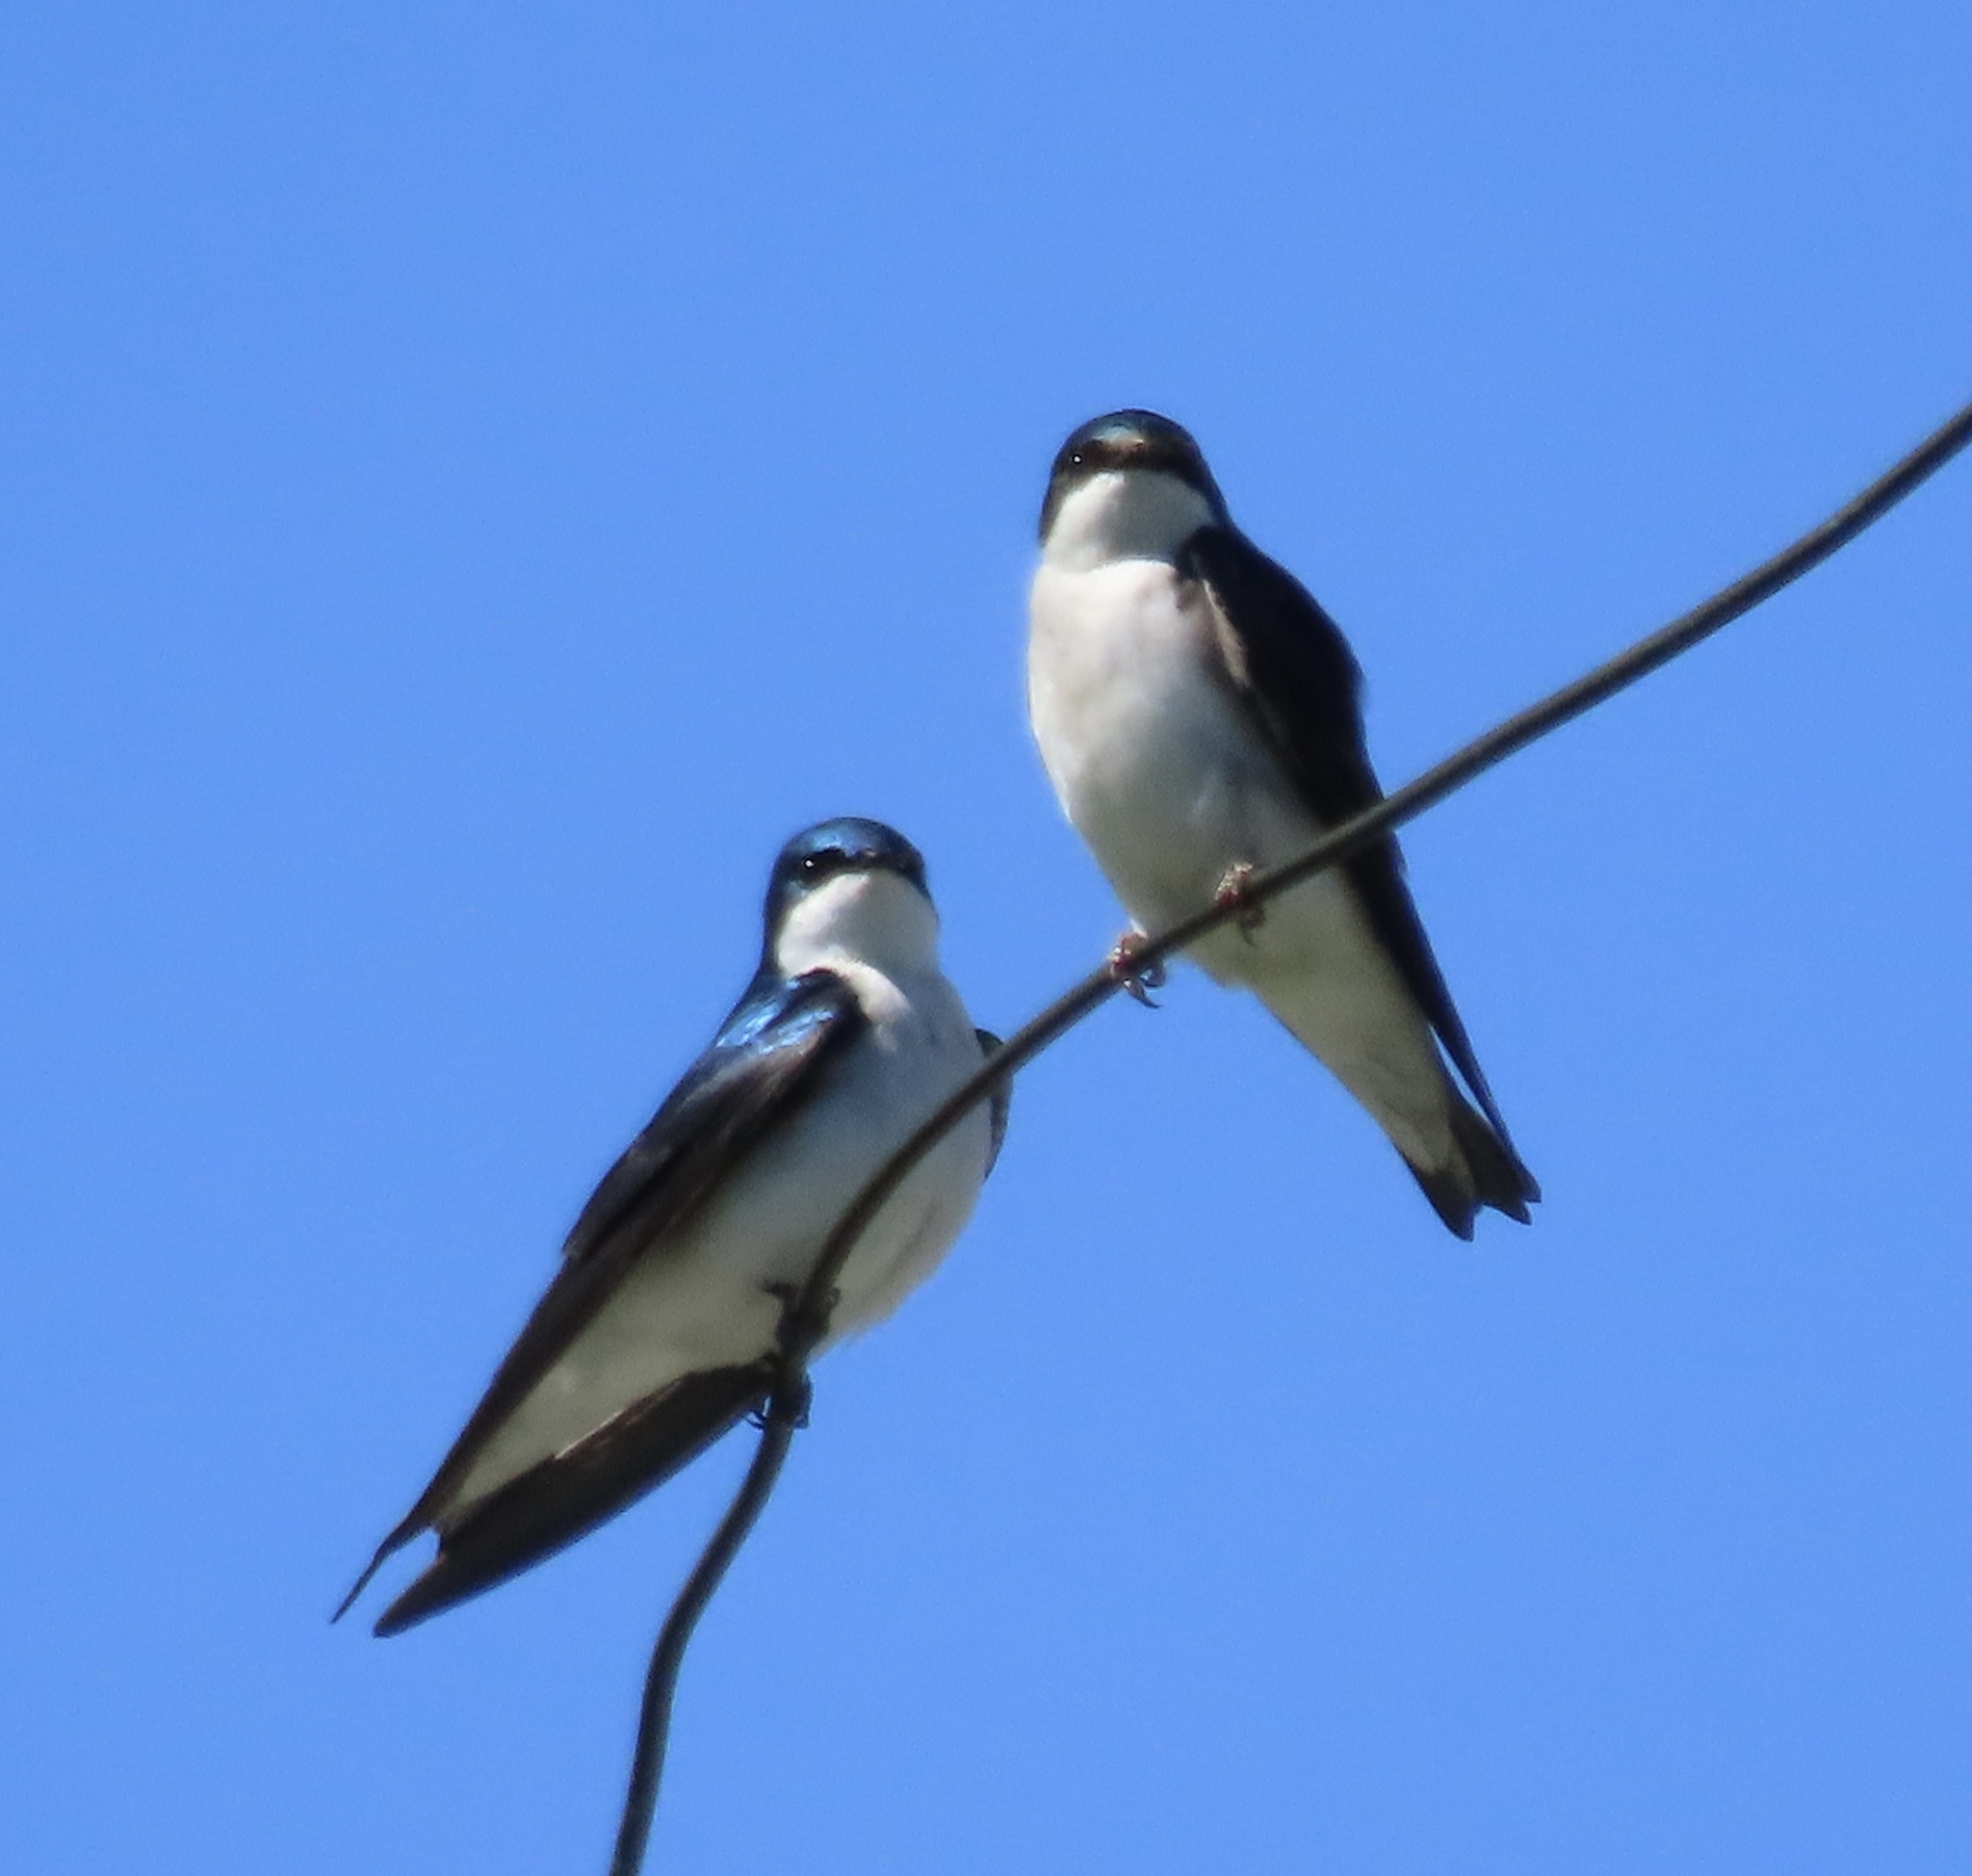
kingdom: Animalia
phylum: Chordata
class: Aves
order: Passeriformes
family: Hirundinidae
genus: Tachycineta
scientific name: Tachycineta bicolor
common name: Tree swallow
